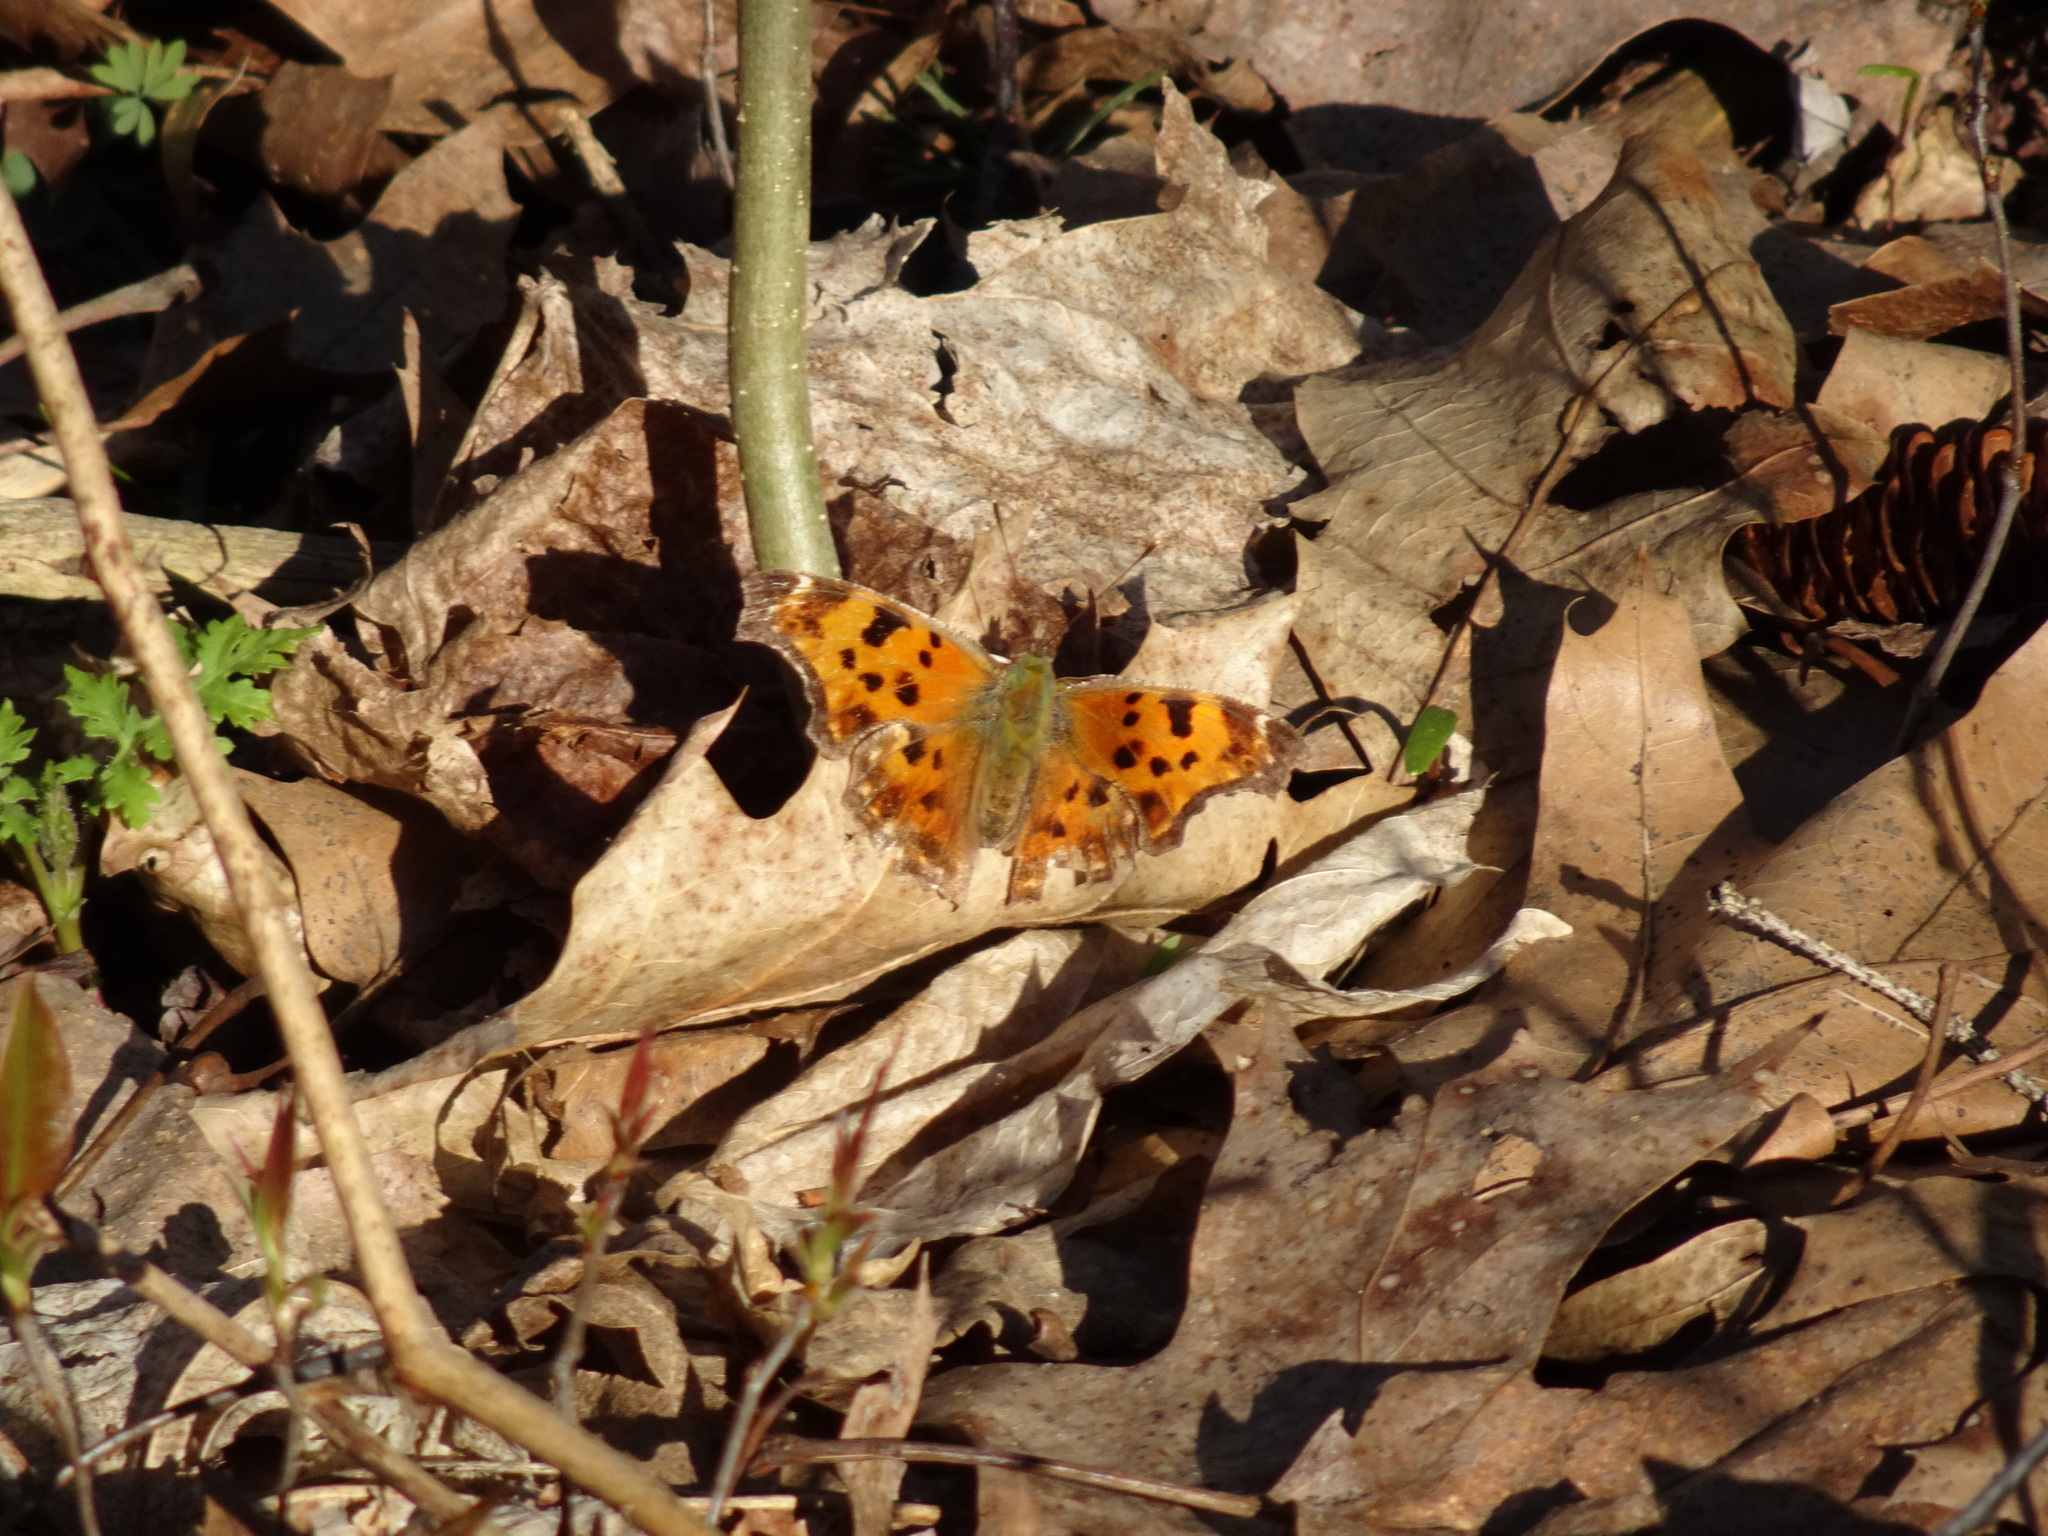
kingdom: Animalia
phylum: Arthropoda
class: Insecta
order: Lepidoptera
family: Nymphalidae
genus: Polygonia
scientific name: Polygonia comma
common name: Eastern comma
